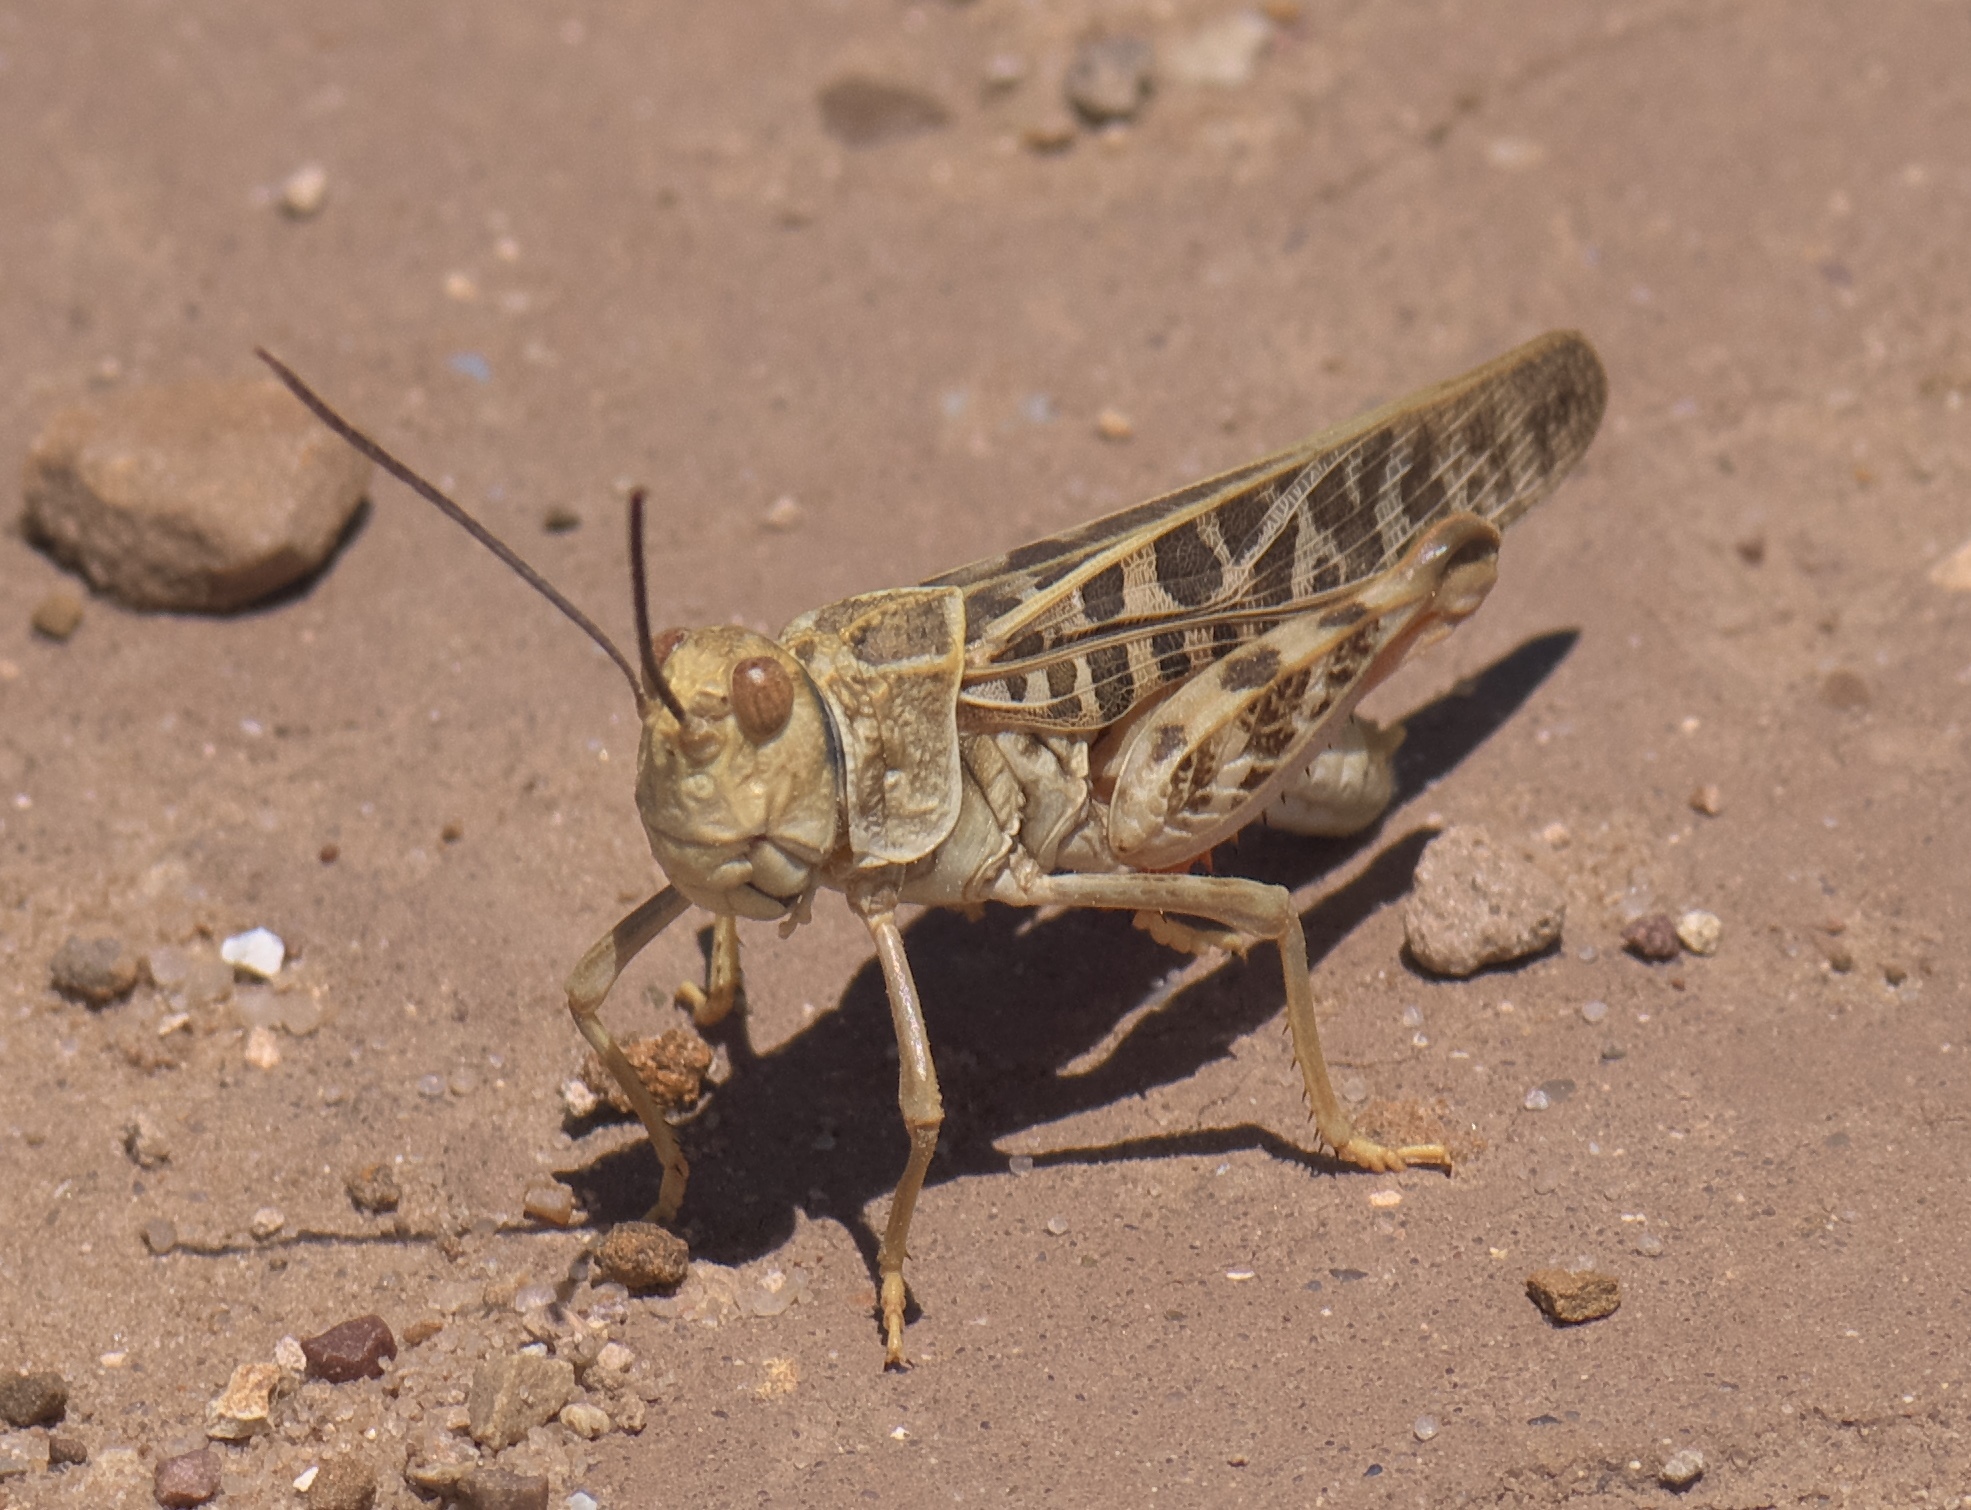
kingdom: Animalia
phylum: Arthropoda
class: Insecta
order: Orthoptera
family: Acrididae
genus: Xanthippus
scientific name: Xanthippus corallipes
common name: Redshanked grasshopper
